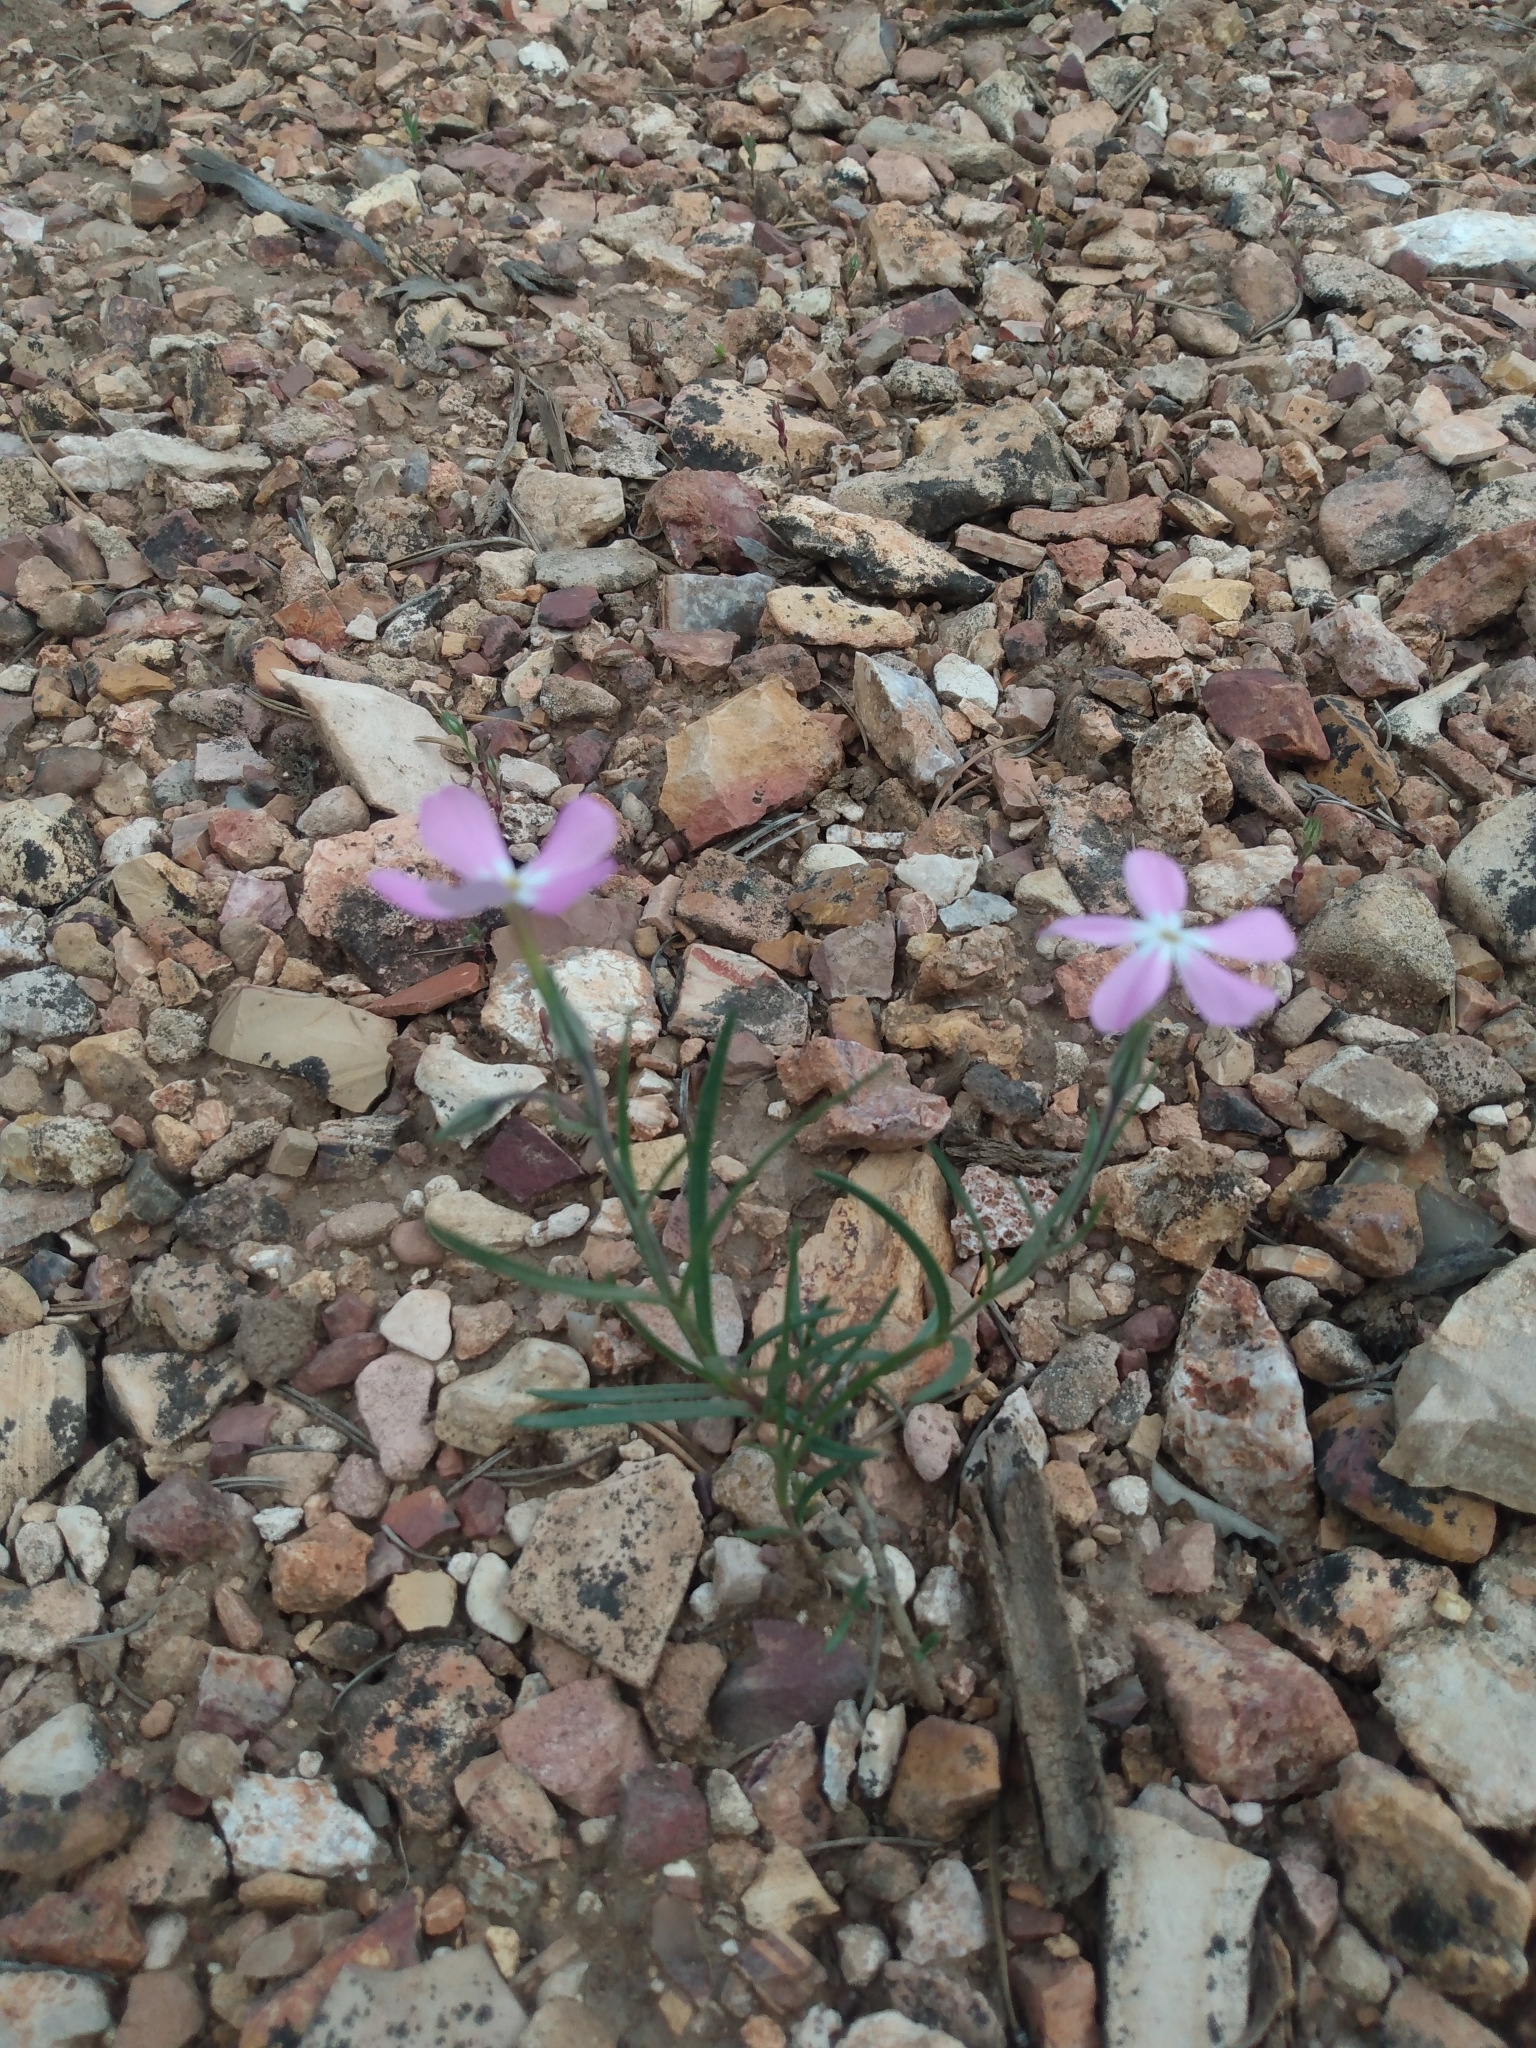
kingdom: Plantae
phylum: Tracheophyta
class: Magnoliopsida
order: Ericales
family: Polemoniaceae
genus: Phlox
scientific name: Phlox longifolia
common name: Longleaf phlox
